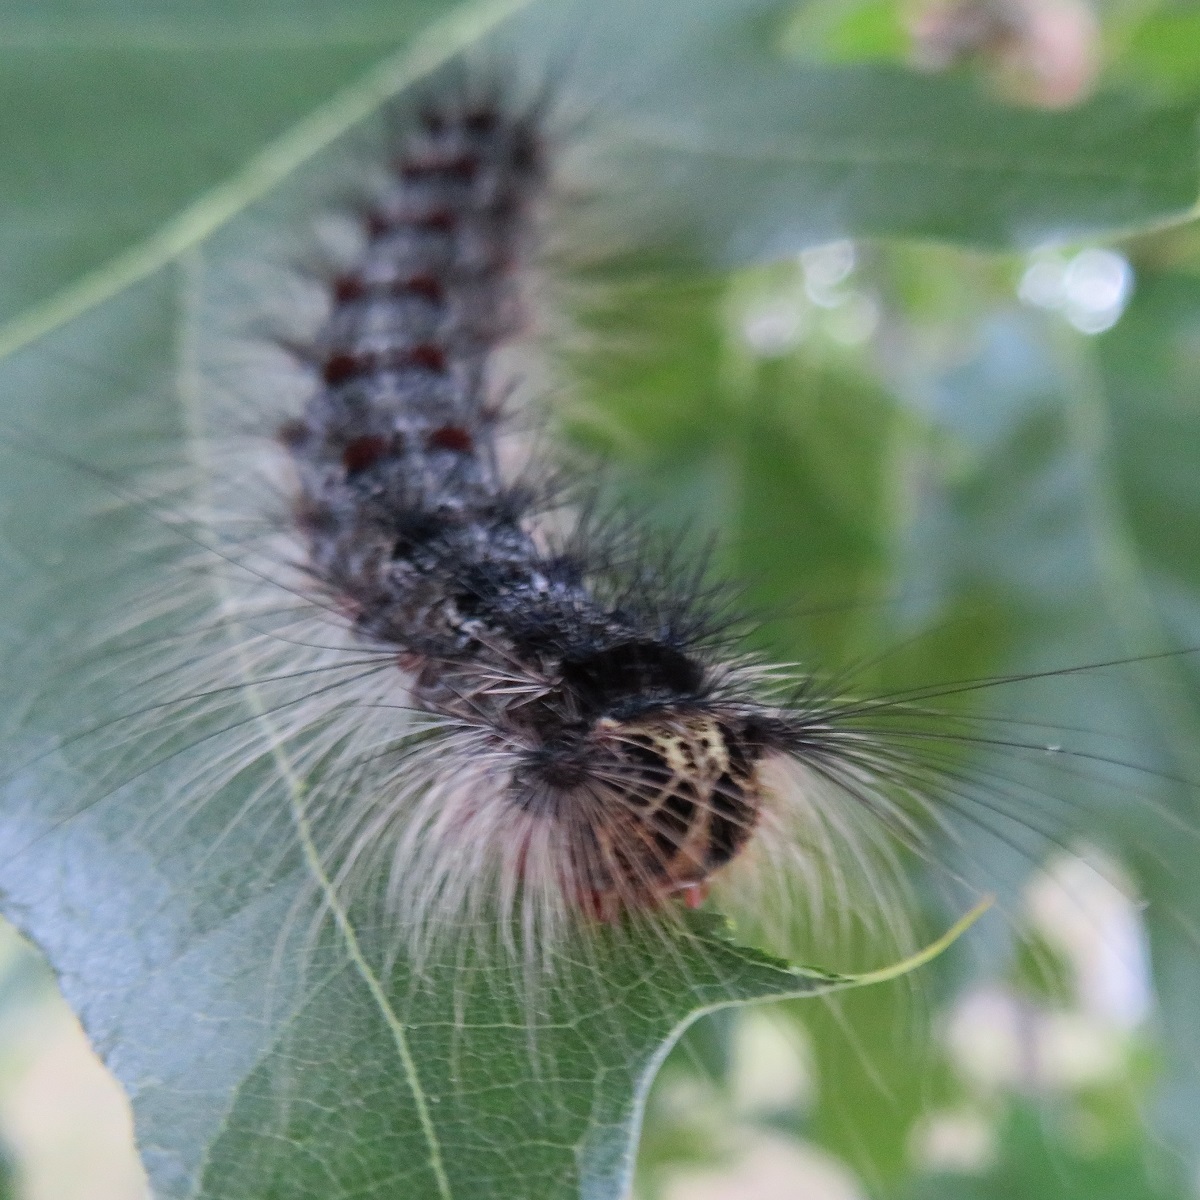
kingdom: Animalia
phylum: Arthropoda
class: Insecta
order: Lepidoptera
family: Erebidae
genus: Lymantria
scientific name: Lymantria dispar
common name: Gypsy moth
